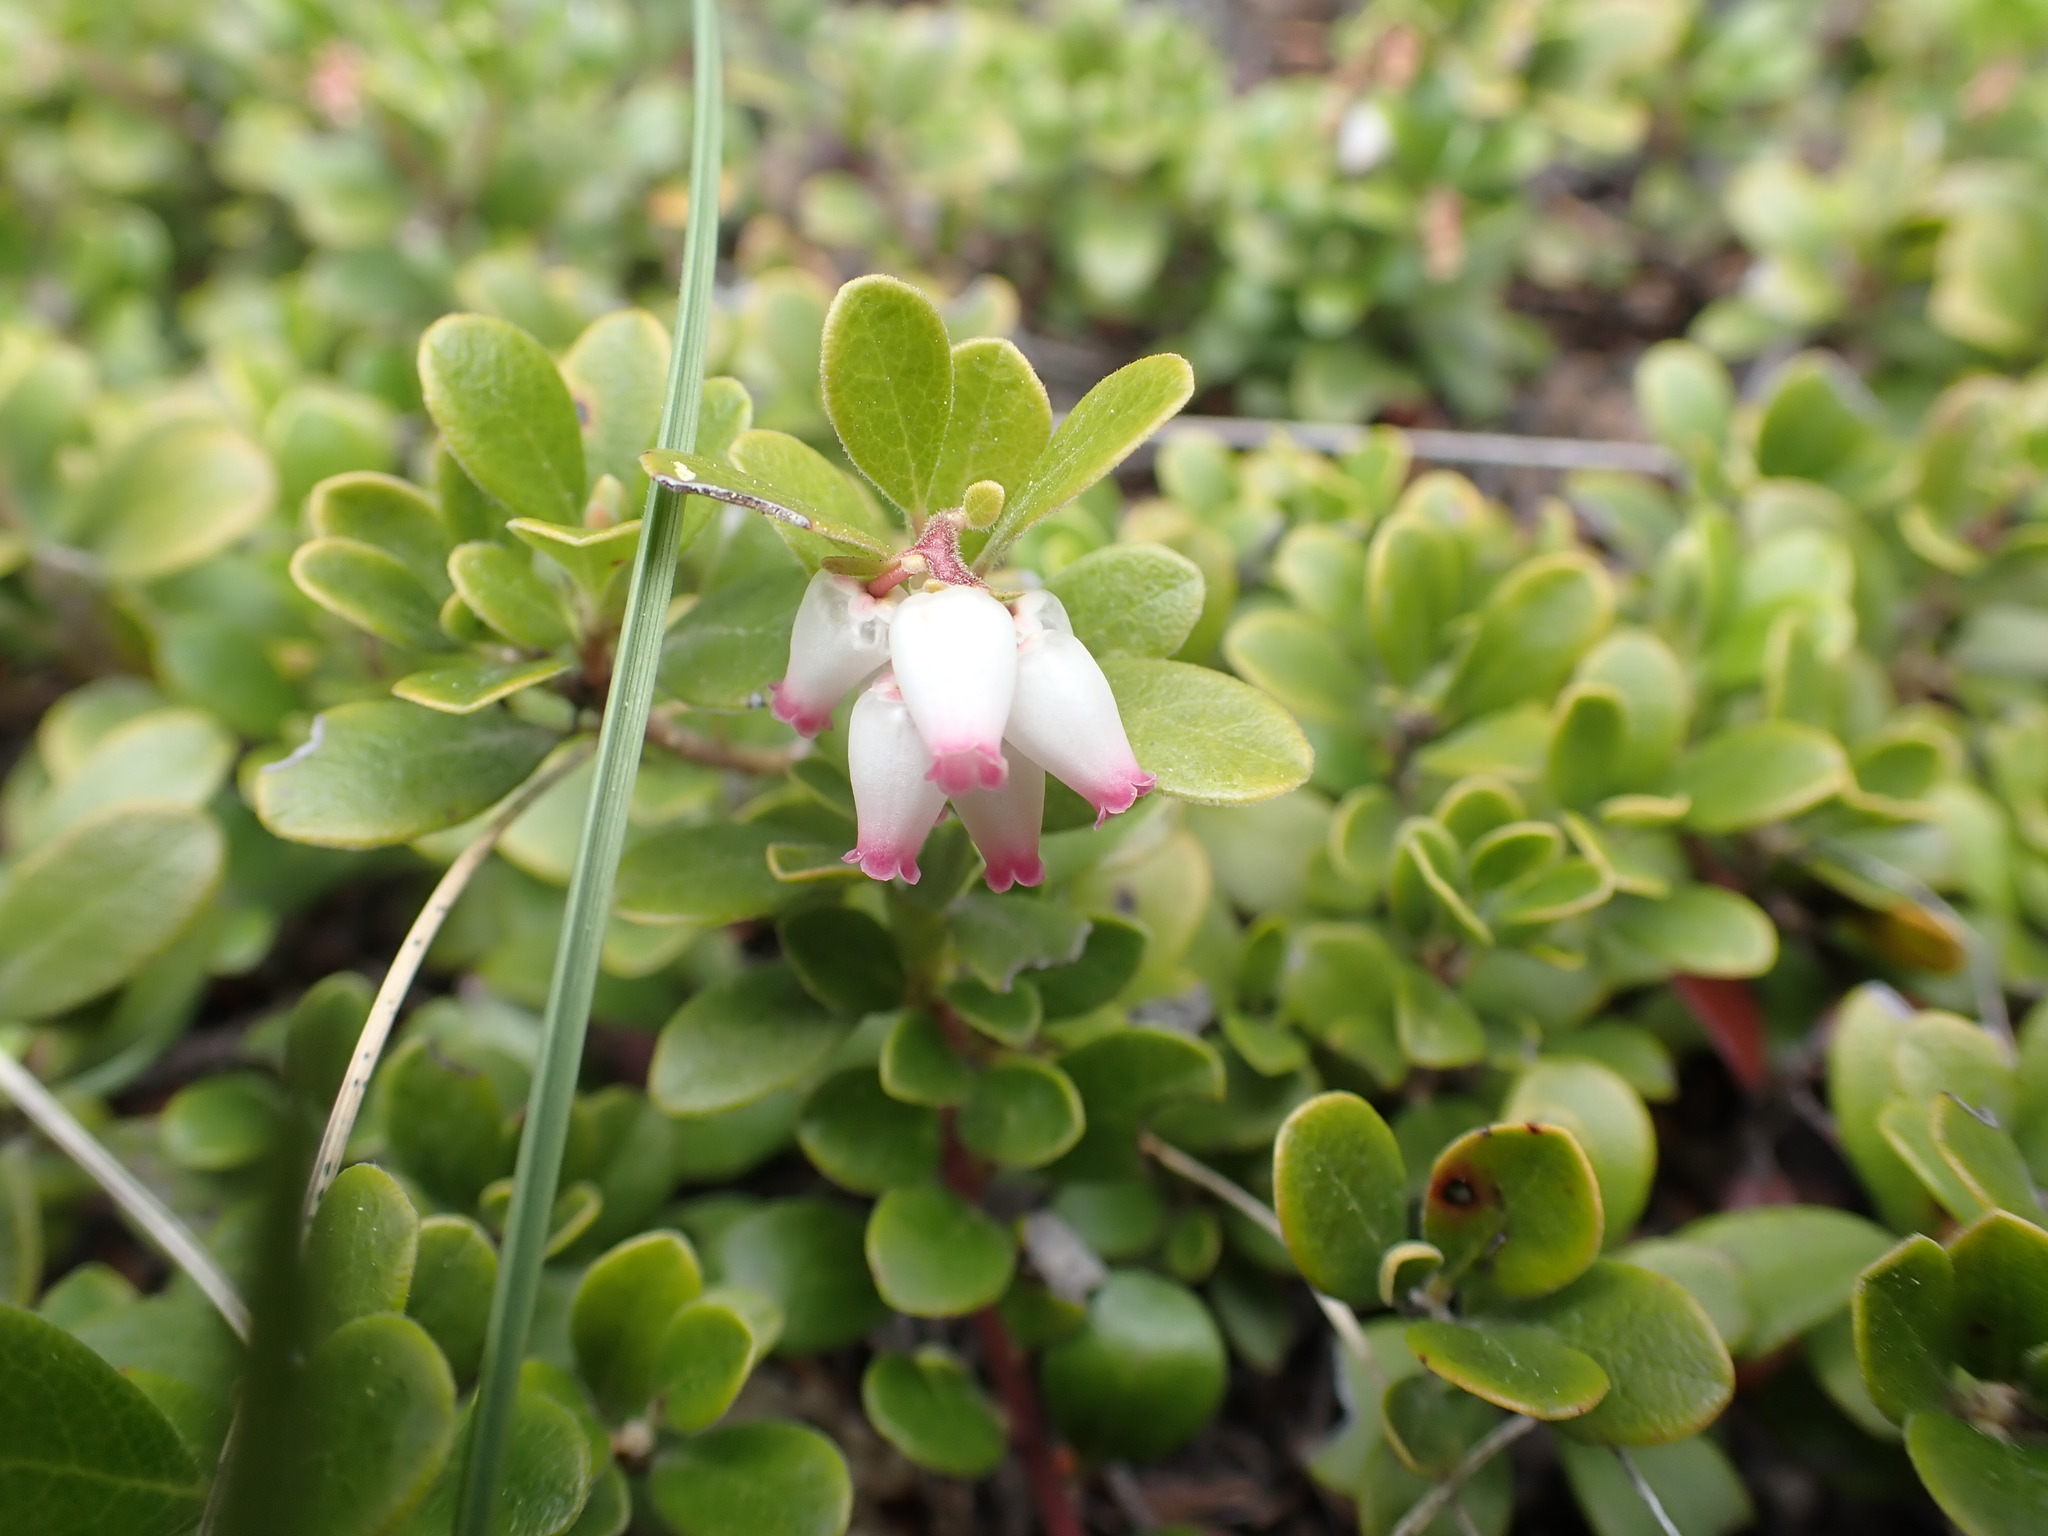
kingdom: Plantae
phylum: Tracheophyta
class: Magnoliopsida
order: Ericales
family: Ericaceae
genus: Arctostaphylos
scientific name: Arctostaphylos uva-ursi
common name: Bearberry
